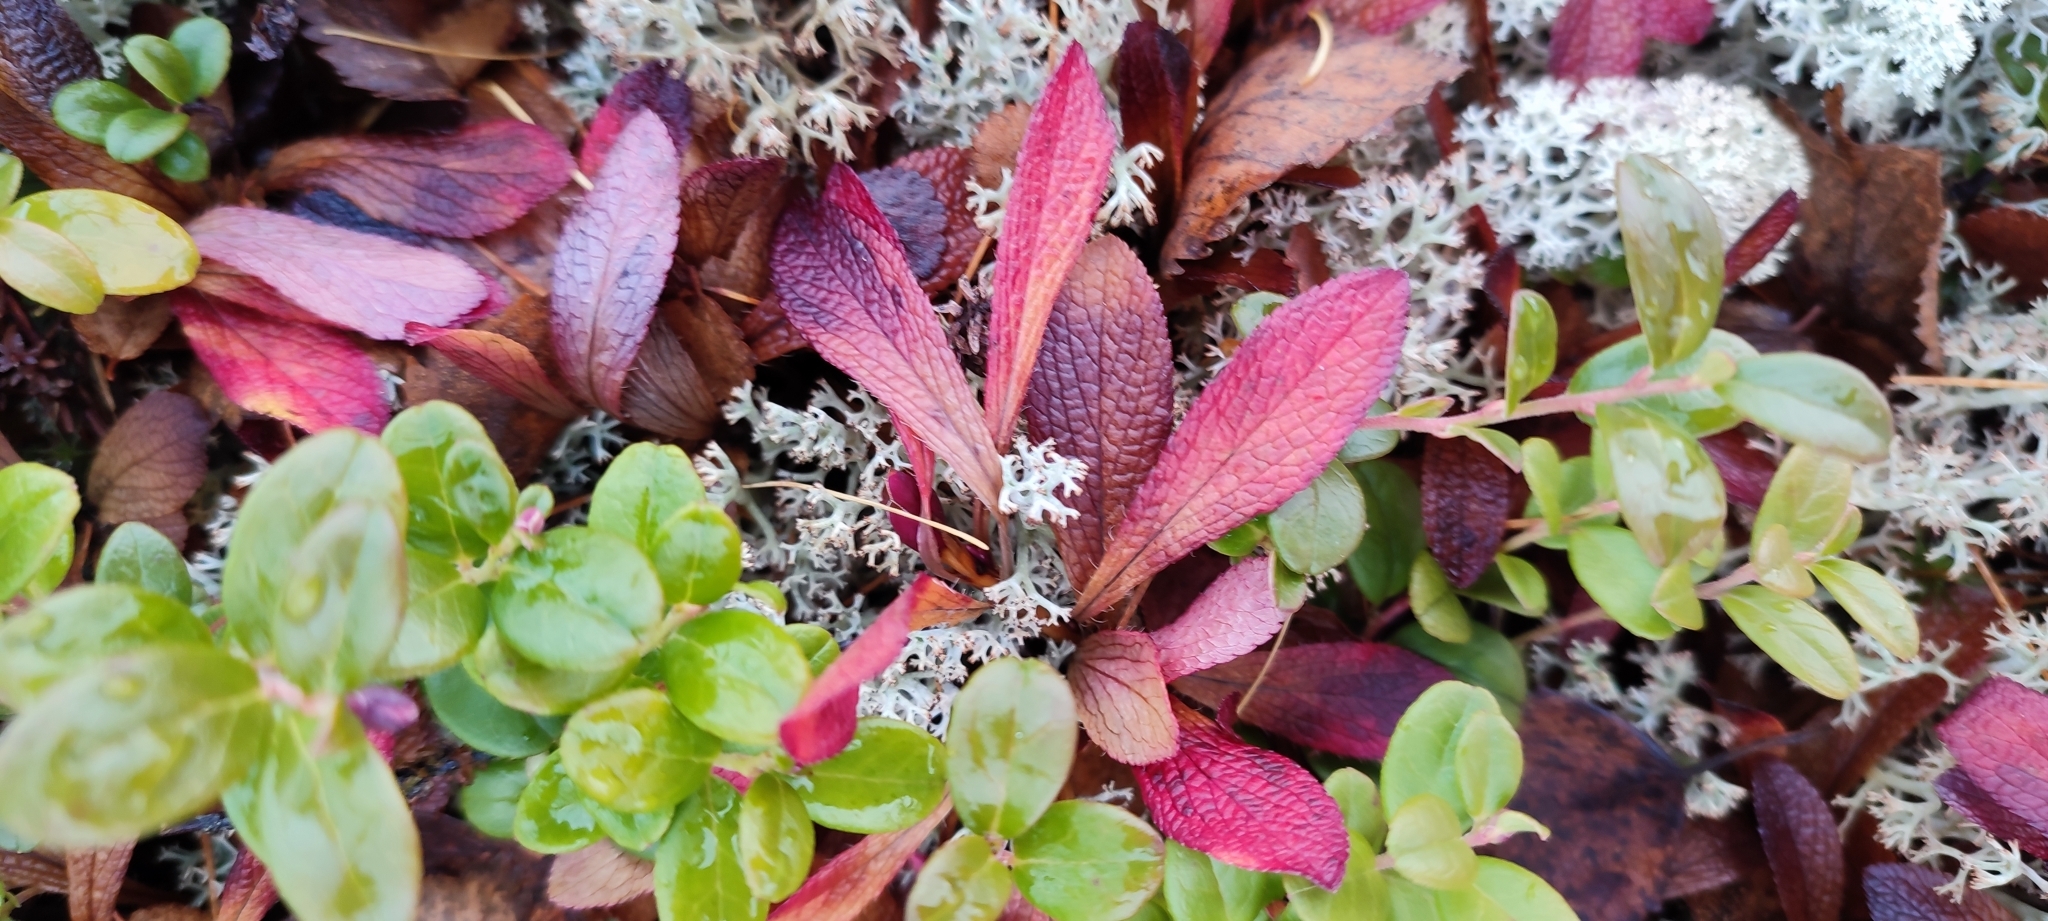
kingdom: Plantae
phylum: Tracheophyta
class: Magnoliopsida
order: Ericales
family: Ericaceae
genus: Arctostaphylos
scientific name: Arctostaphylos alpinus
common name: Alpine bearberry
